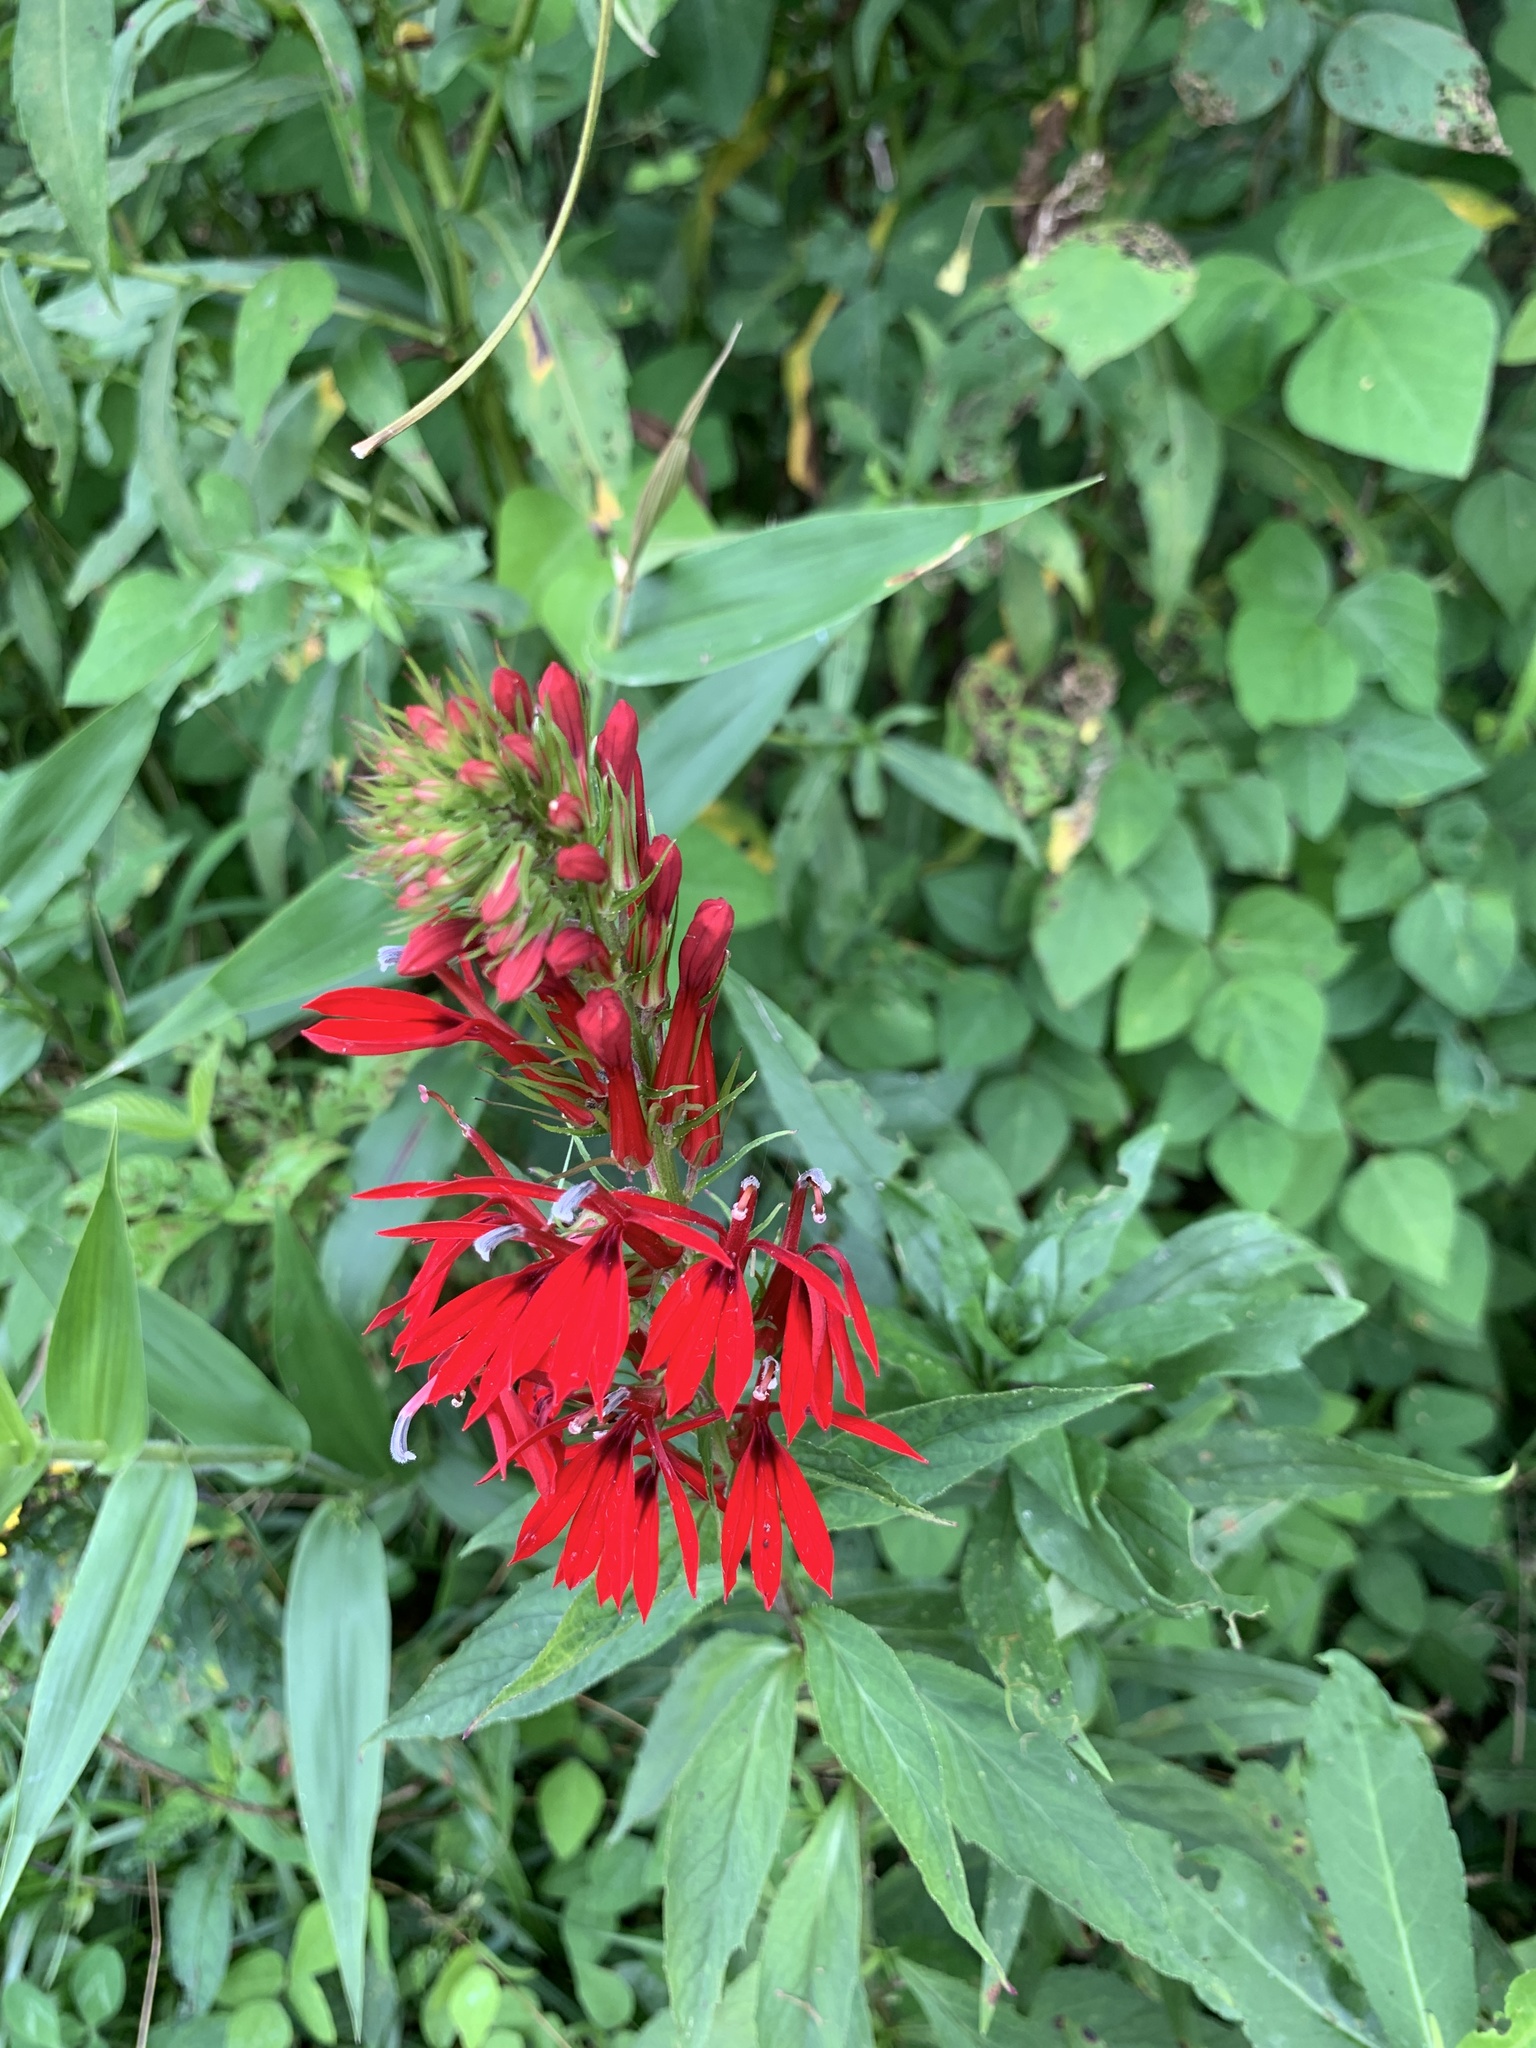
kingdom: Plantae
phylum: Tracheophyta
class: Magnoliopsida
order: Asterales
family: Campanulaceae
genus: Lobelia
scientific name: Lobelia cardinalis
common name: Cardinal flower
